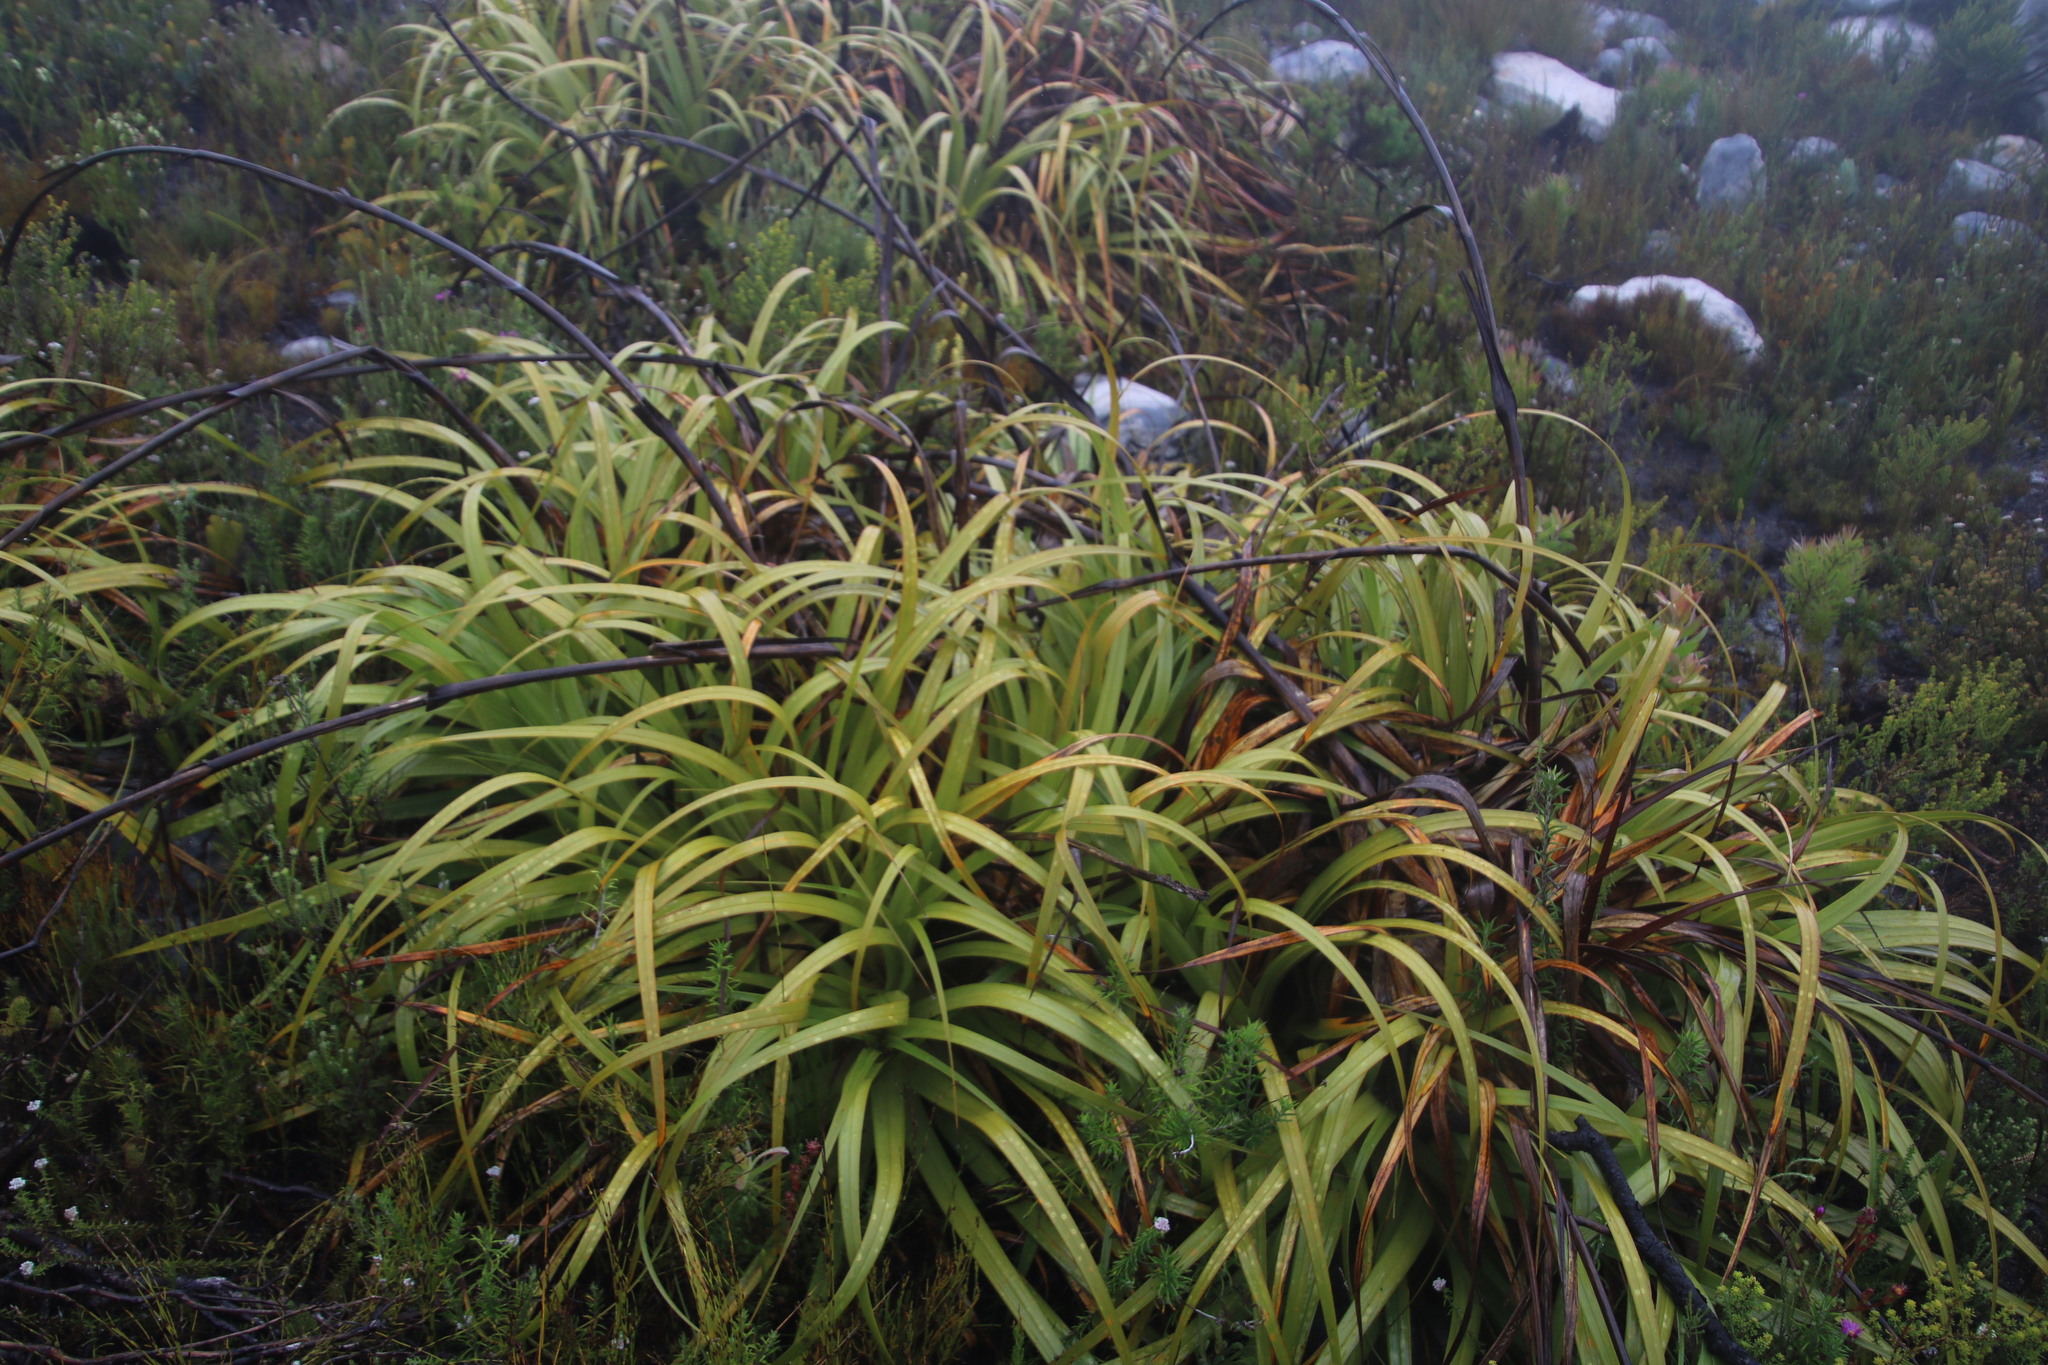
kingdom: Plantae
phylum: Tracheophyta
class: Liliopsida
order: Poales
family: Cyperaceae
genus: Tetraria
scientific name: Tetraria thermalis
